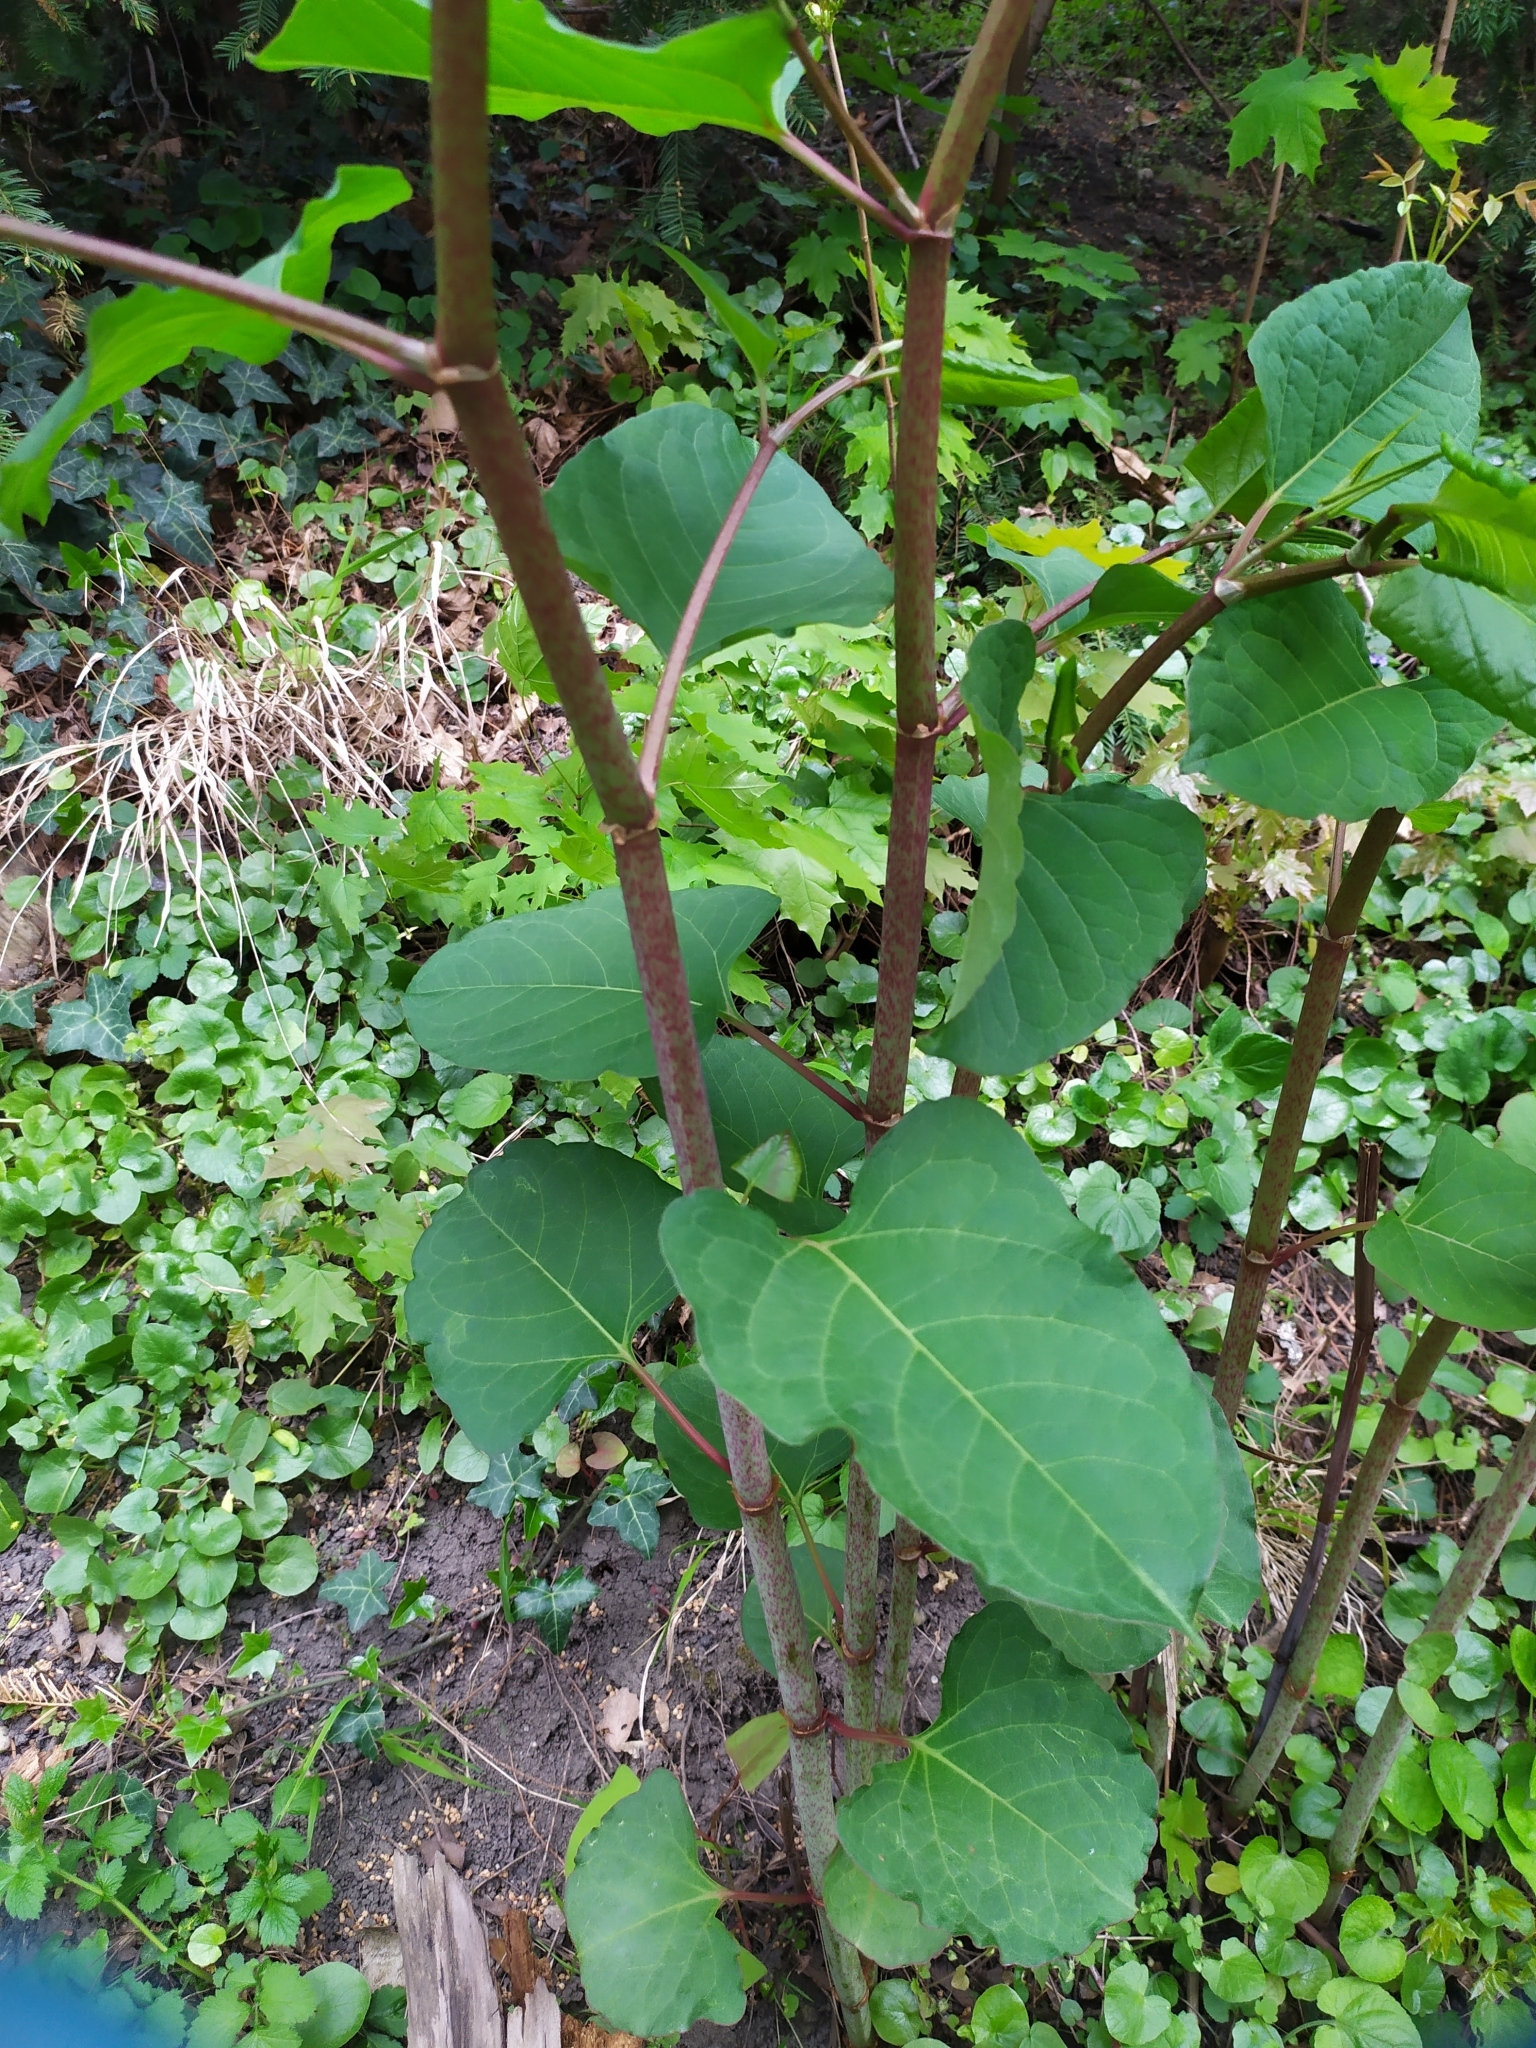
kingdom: Plantae
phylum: Tracheophyta
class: Magnoliopsida
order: Caryophyllales
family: Polygonaceae
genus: Reynoutria
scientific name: Reynoutria bohemica
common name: Bohemian knotweed
